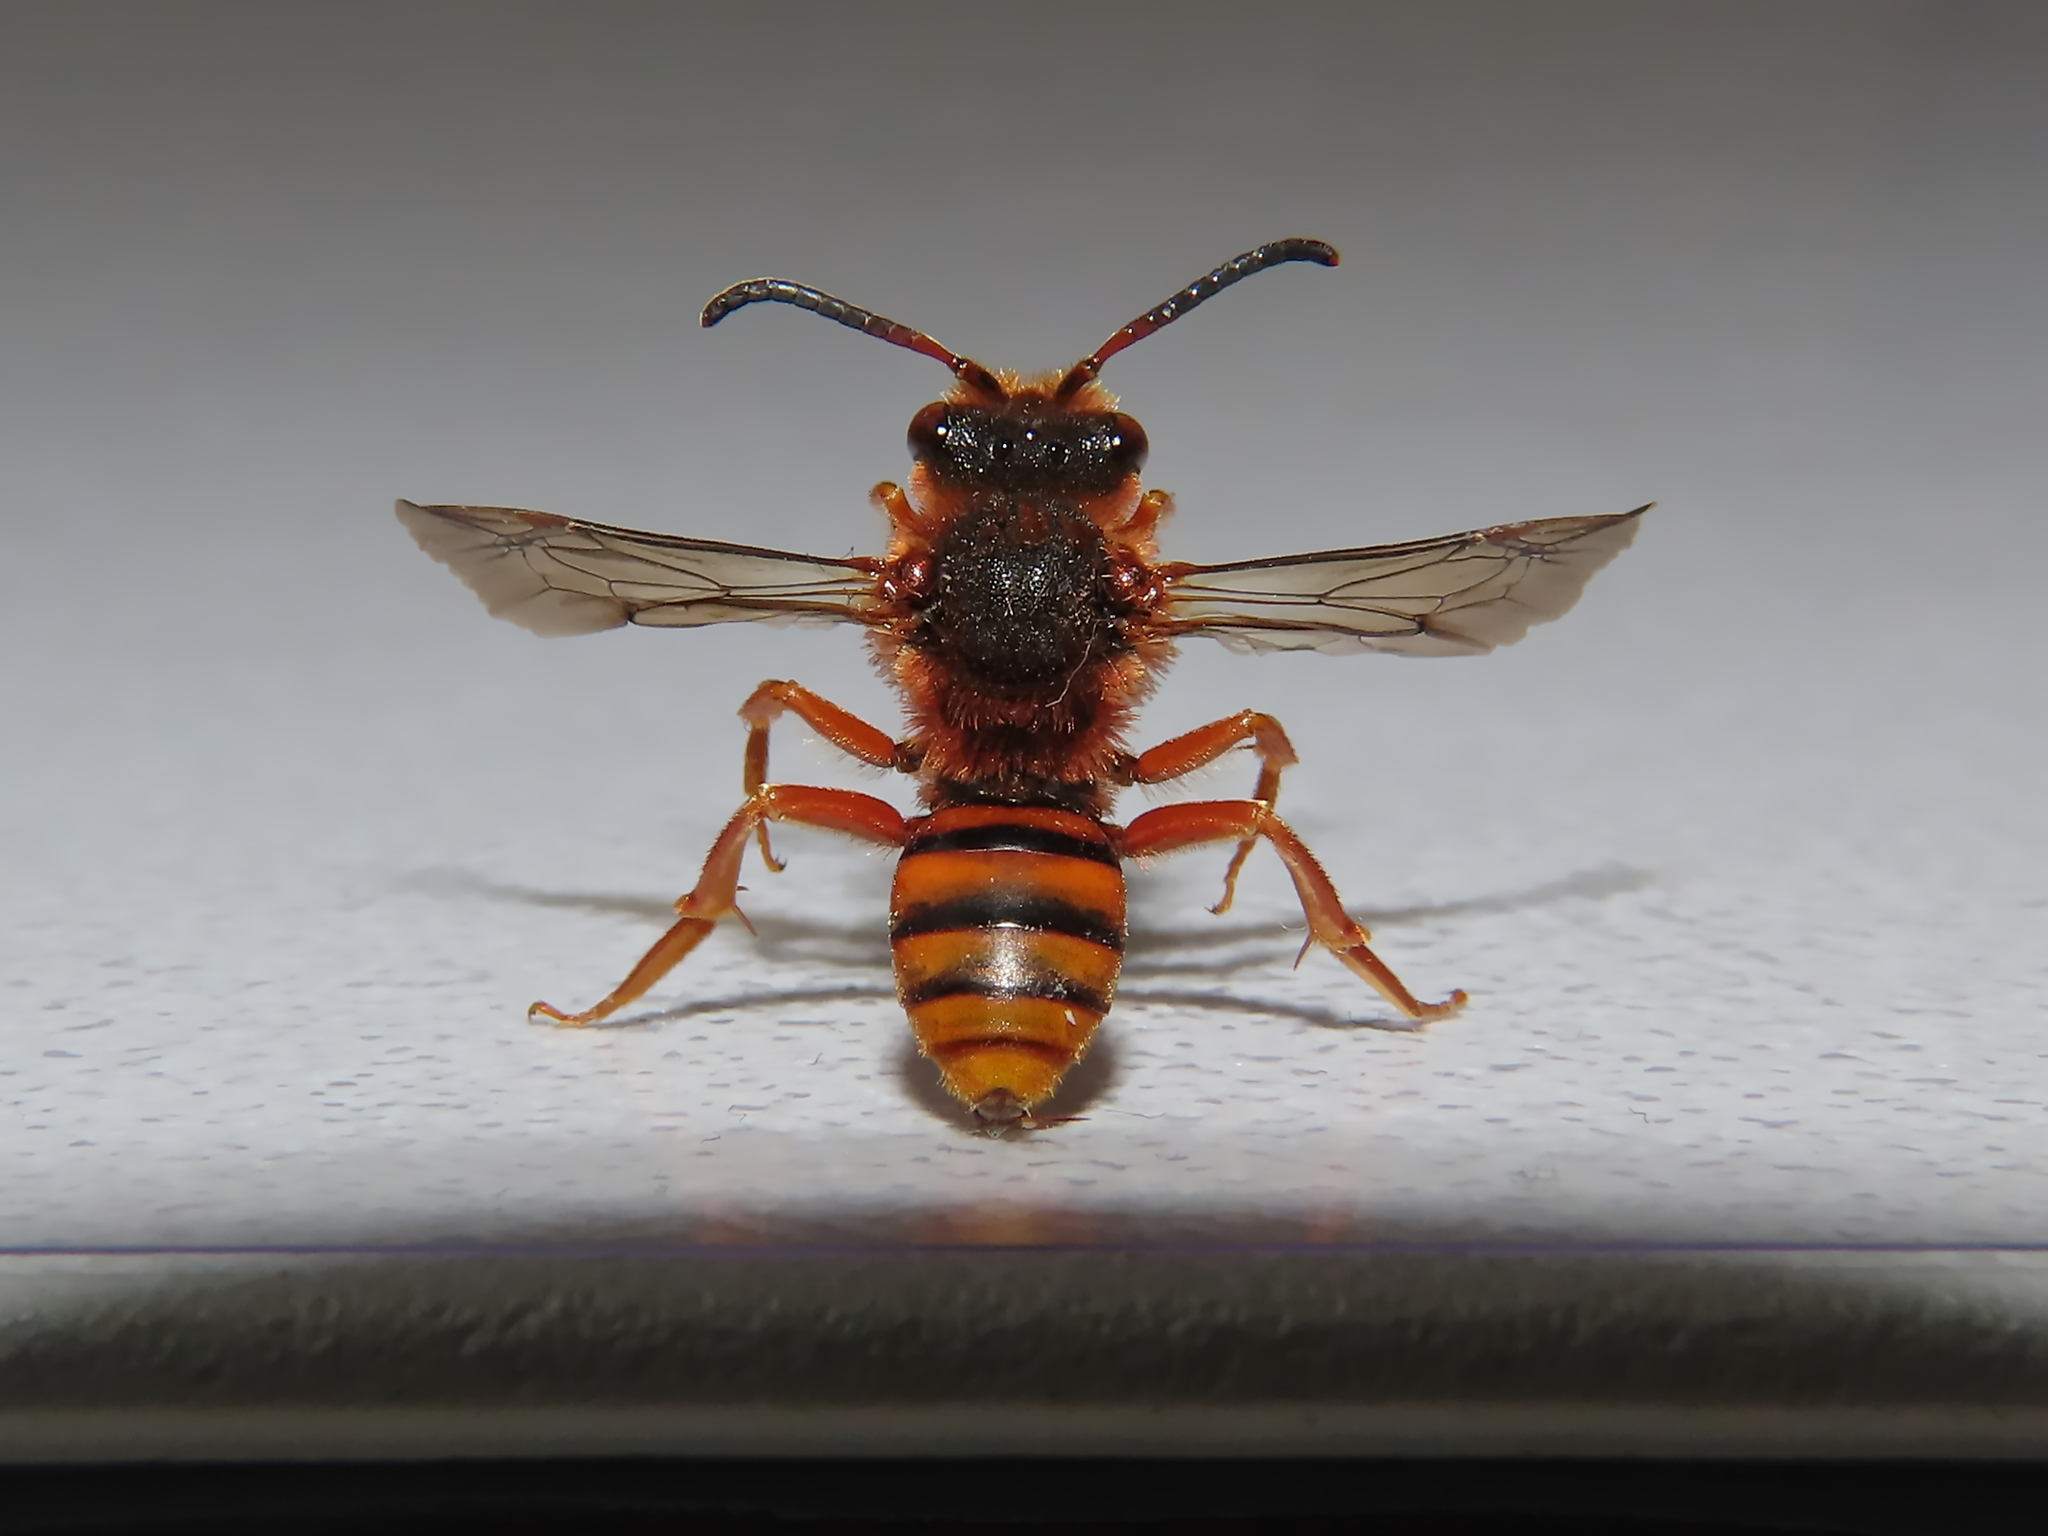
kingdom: Animalia
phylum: Arthropoda
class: Insecta
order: Hymenoptera
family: Apidae
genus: Nomada
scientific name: Nomada agrestis
